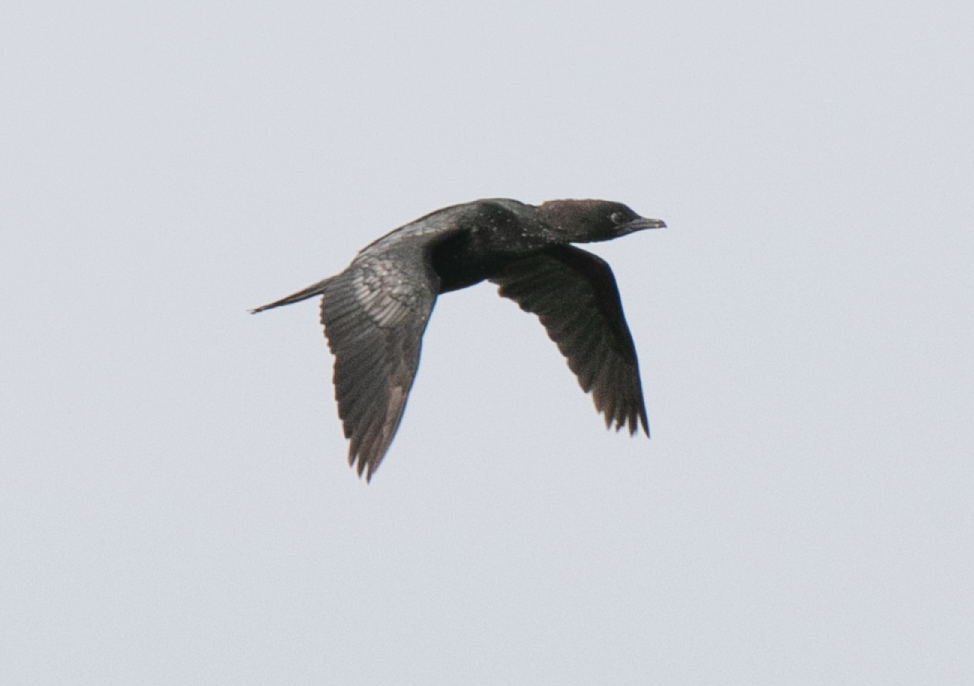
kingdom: Animalia
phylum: Chordata
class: Aves
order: Suliformes
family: Phalacrocoracidae
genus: Microcarbo
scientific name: Microcarbo pygmaeus
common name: Pygmy cormorant
